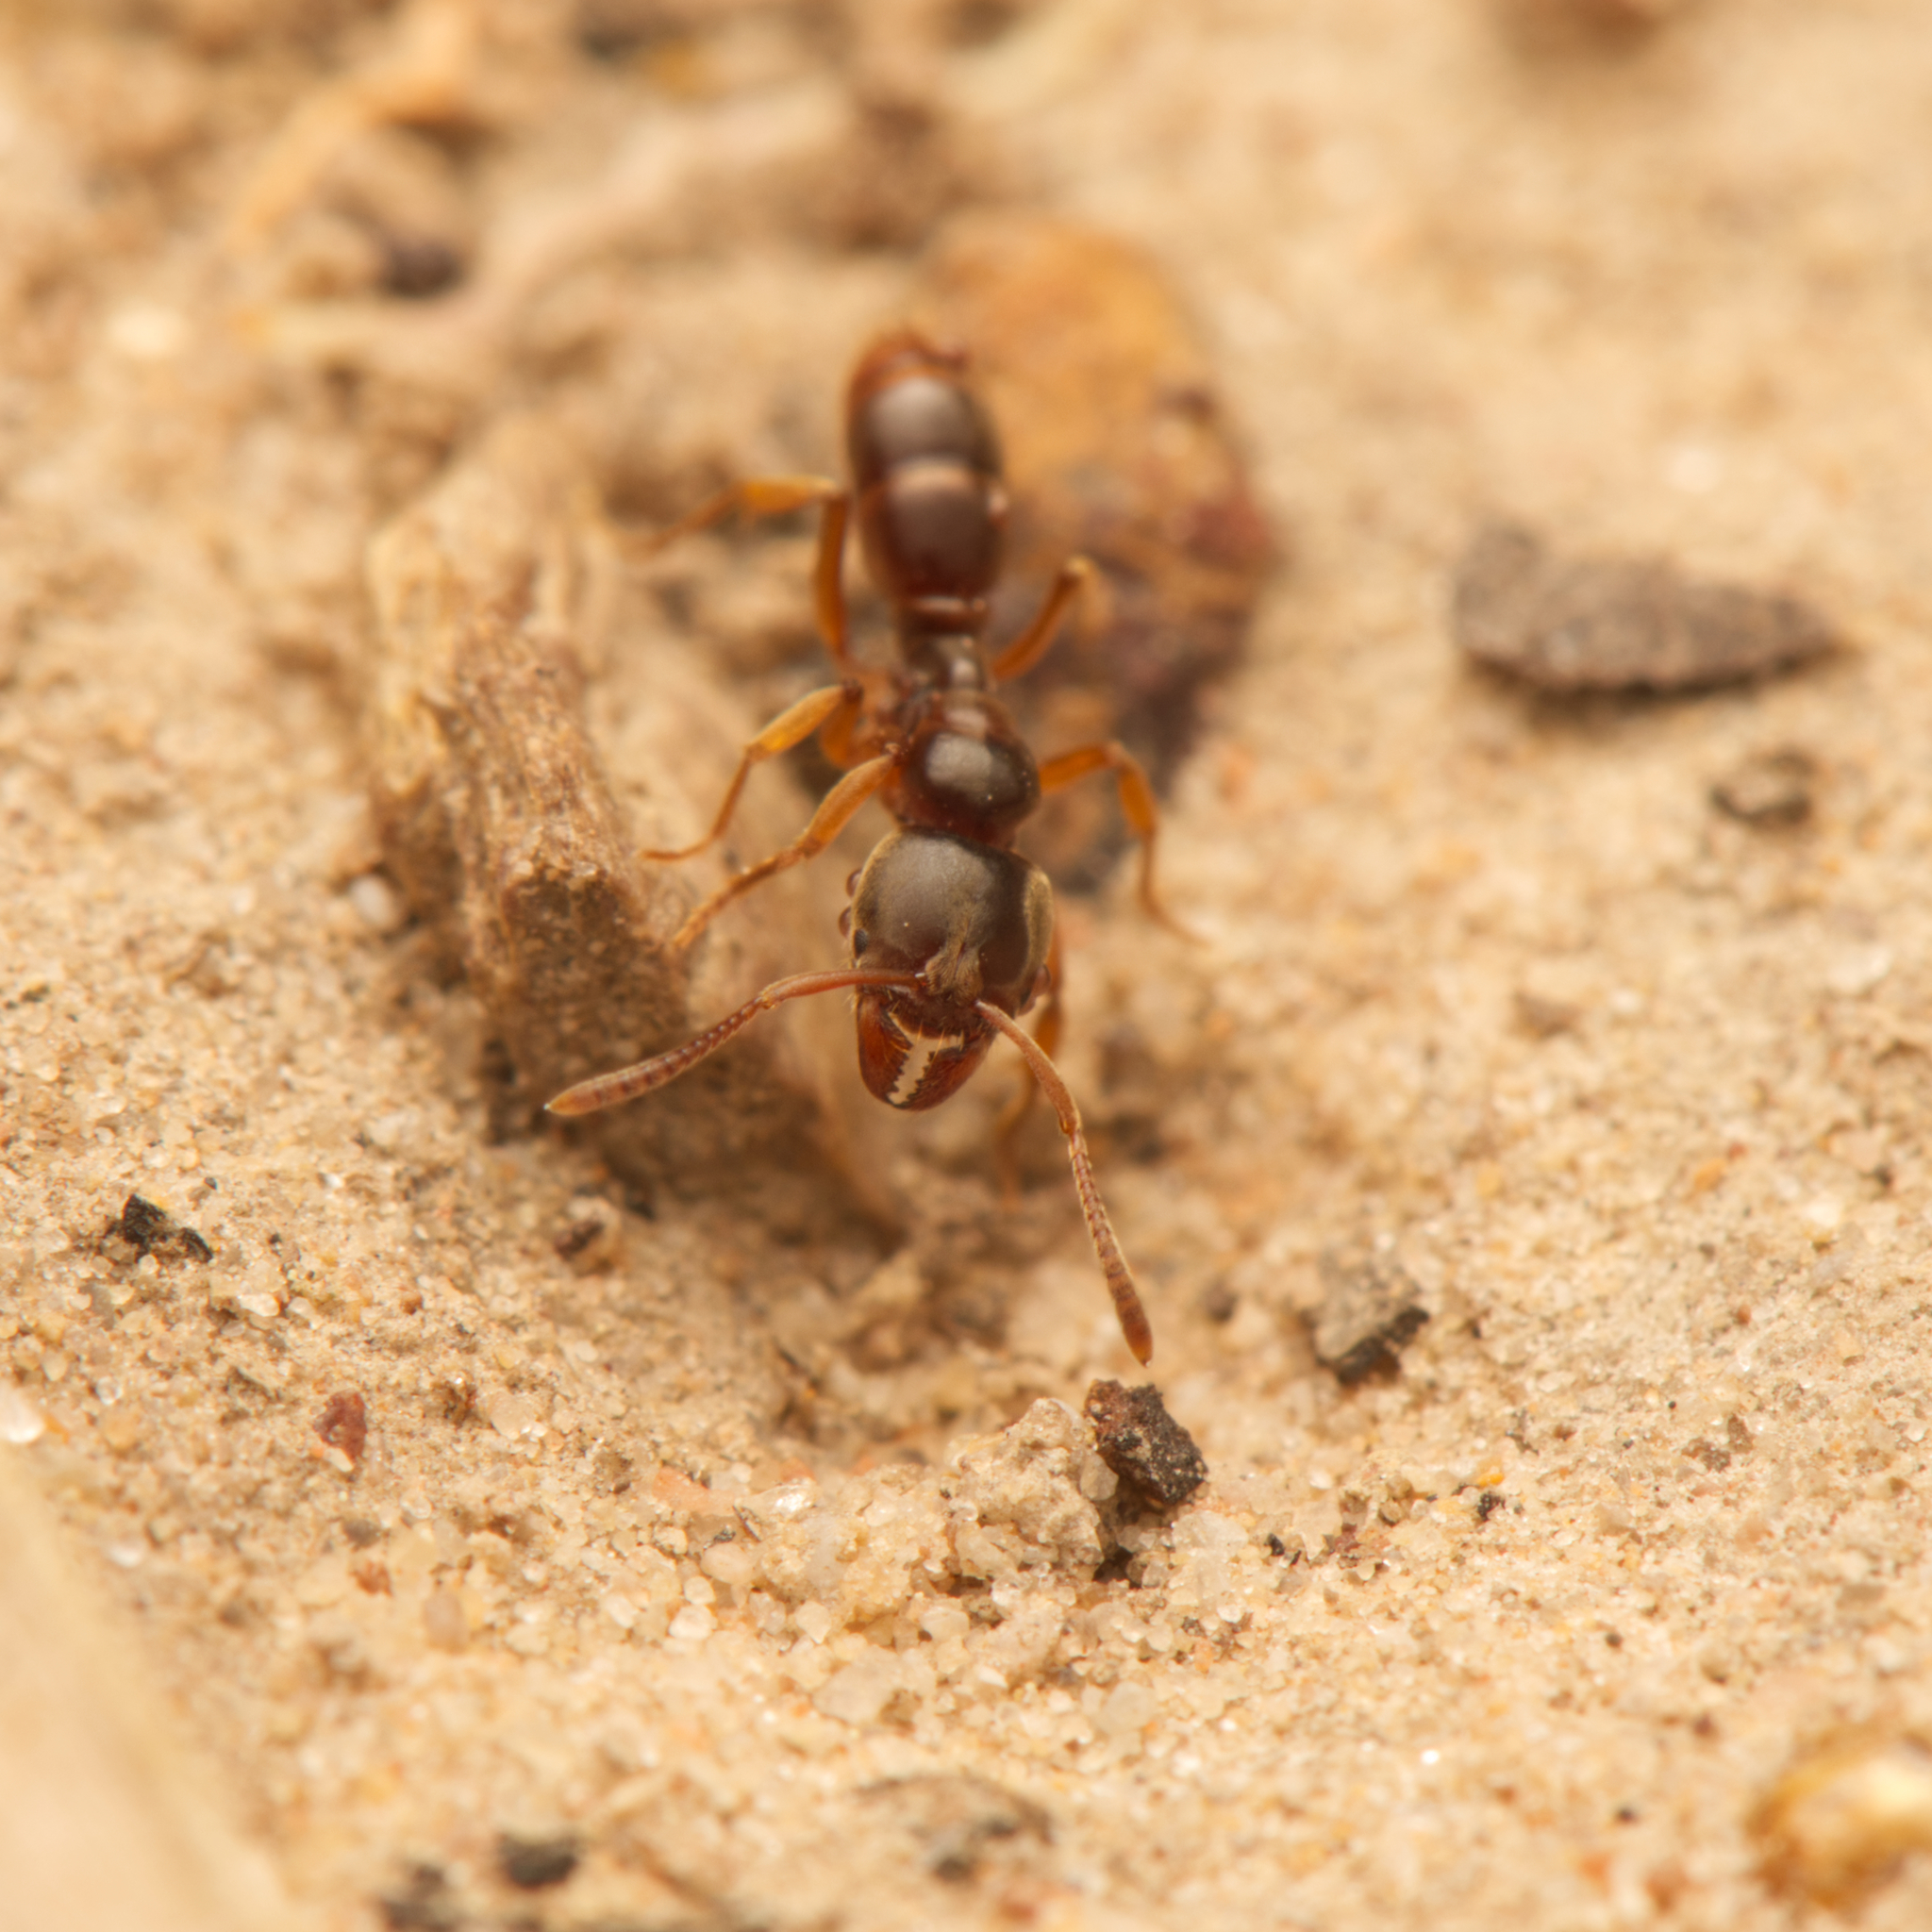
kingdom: Animalia
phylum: Arthropoda
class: Insecta
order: Hymenoptera
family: Formicidae
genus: Brachyponera
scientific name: Brachyponera
